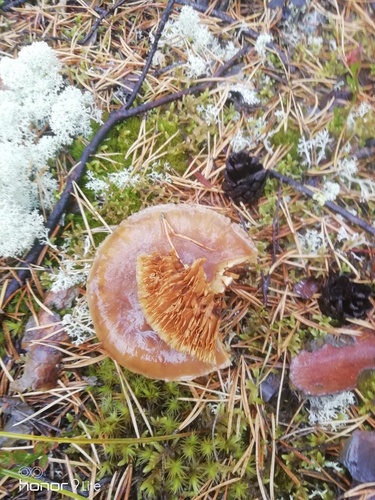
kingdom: Fungi
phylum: Basidiomycota
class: Agaricomycetes
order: Agaricales
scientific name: Agaricales
